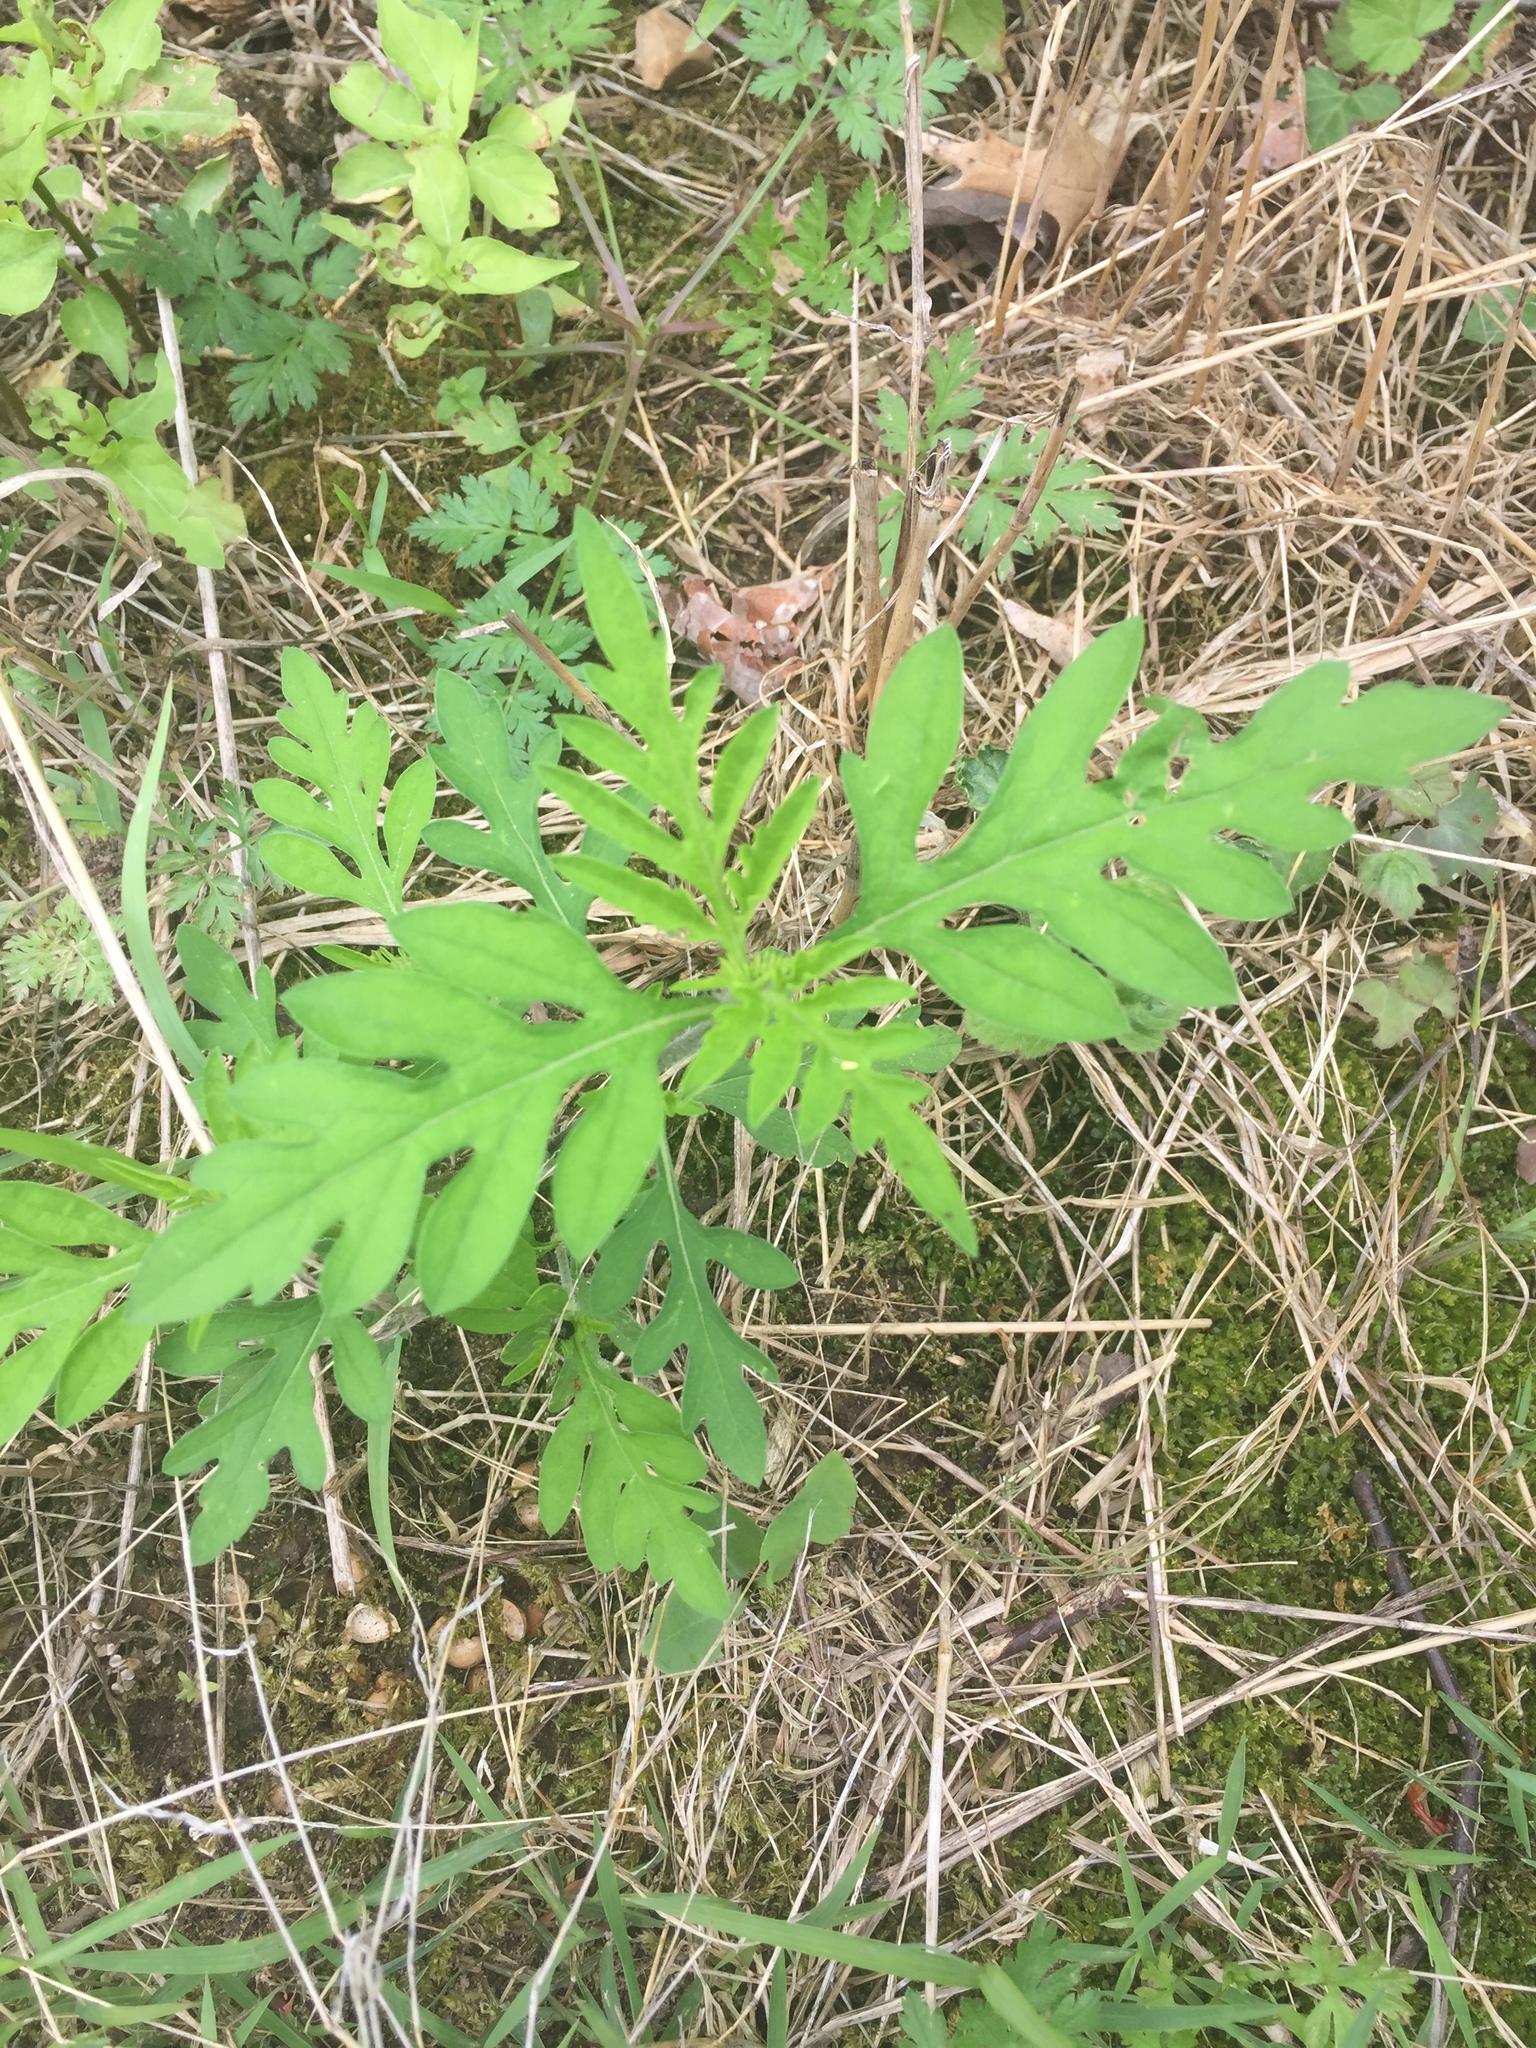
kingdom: Plantae
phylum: Tracheophyta
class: Magnoliopsida
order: Asterales
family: Asteraceae
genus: Ambrosia
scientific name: Ambrosia artemisiifolia
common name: Annual ragweed
